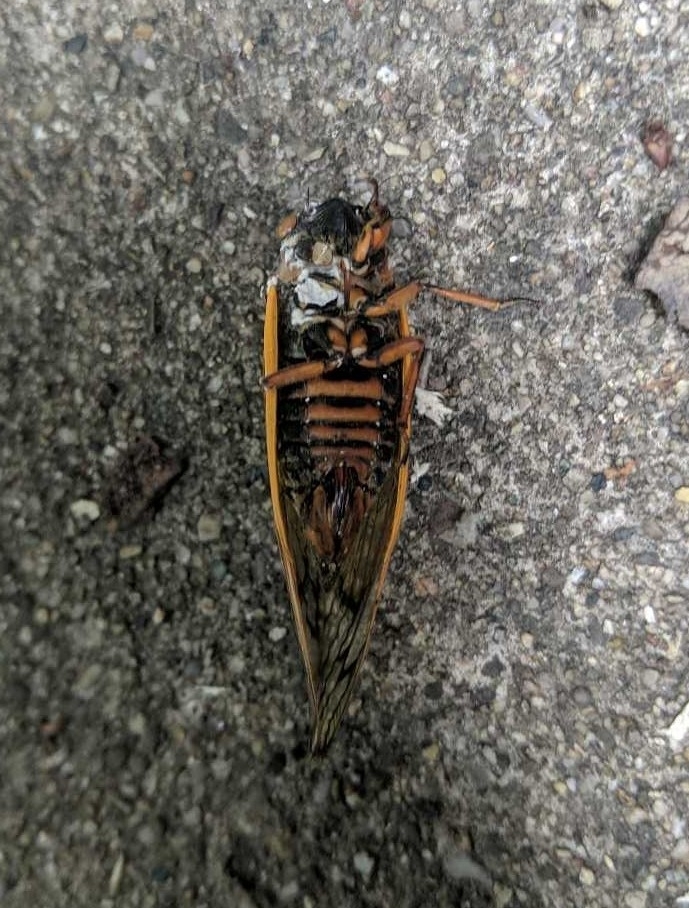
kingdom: Animalia
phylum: Arthropoda
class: Insecta
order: Hemiptera
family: Cicadidae
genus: Magicicada
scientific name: Magicicada septendecim
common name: Periodical cicada
